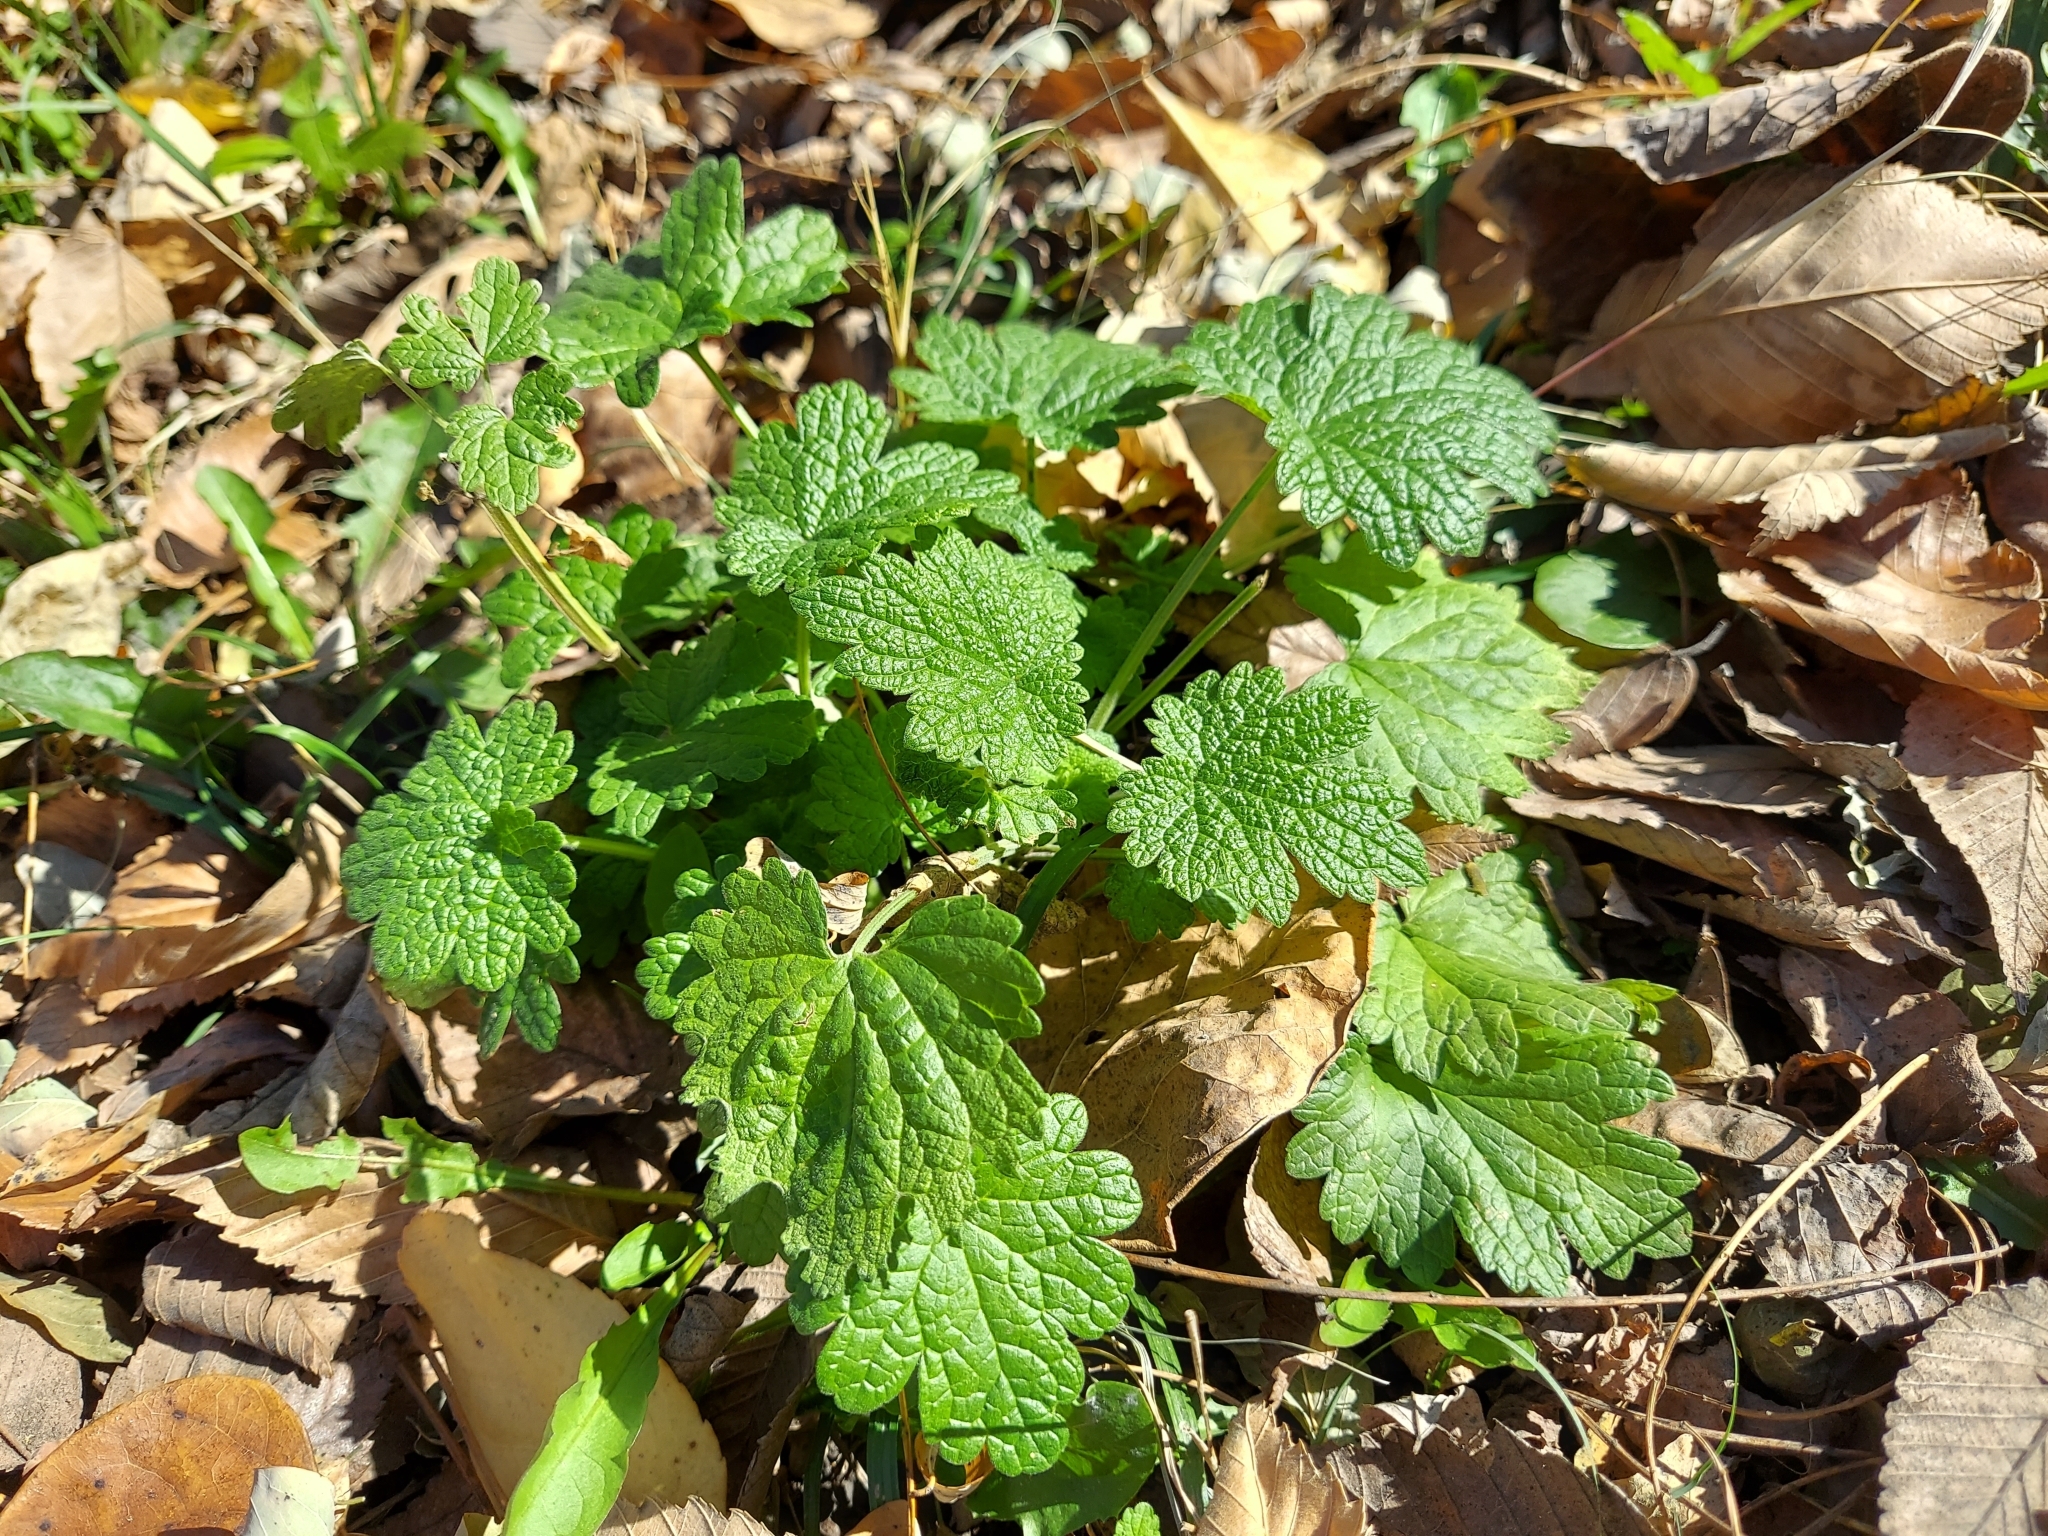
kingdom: Plantae
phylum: Tracheophyta
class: Magnoliopsida
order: Lamiales
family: Lamiaceae
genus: Leonurus
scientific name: Leonurus cardiaca
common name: Motherwort
